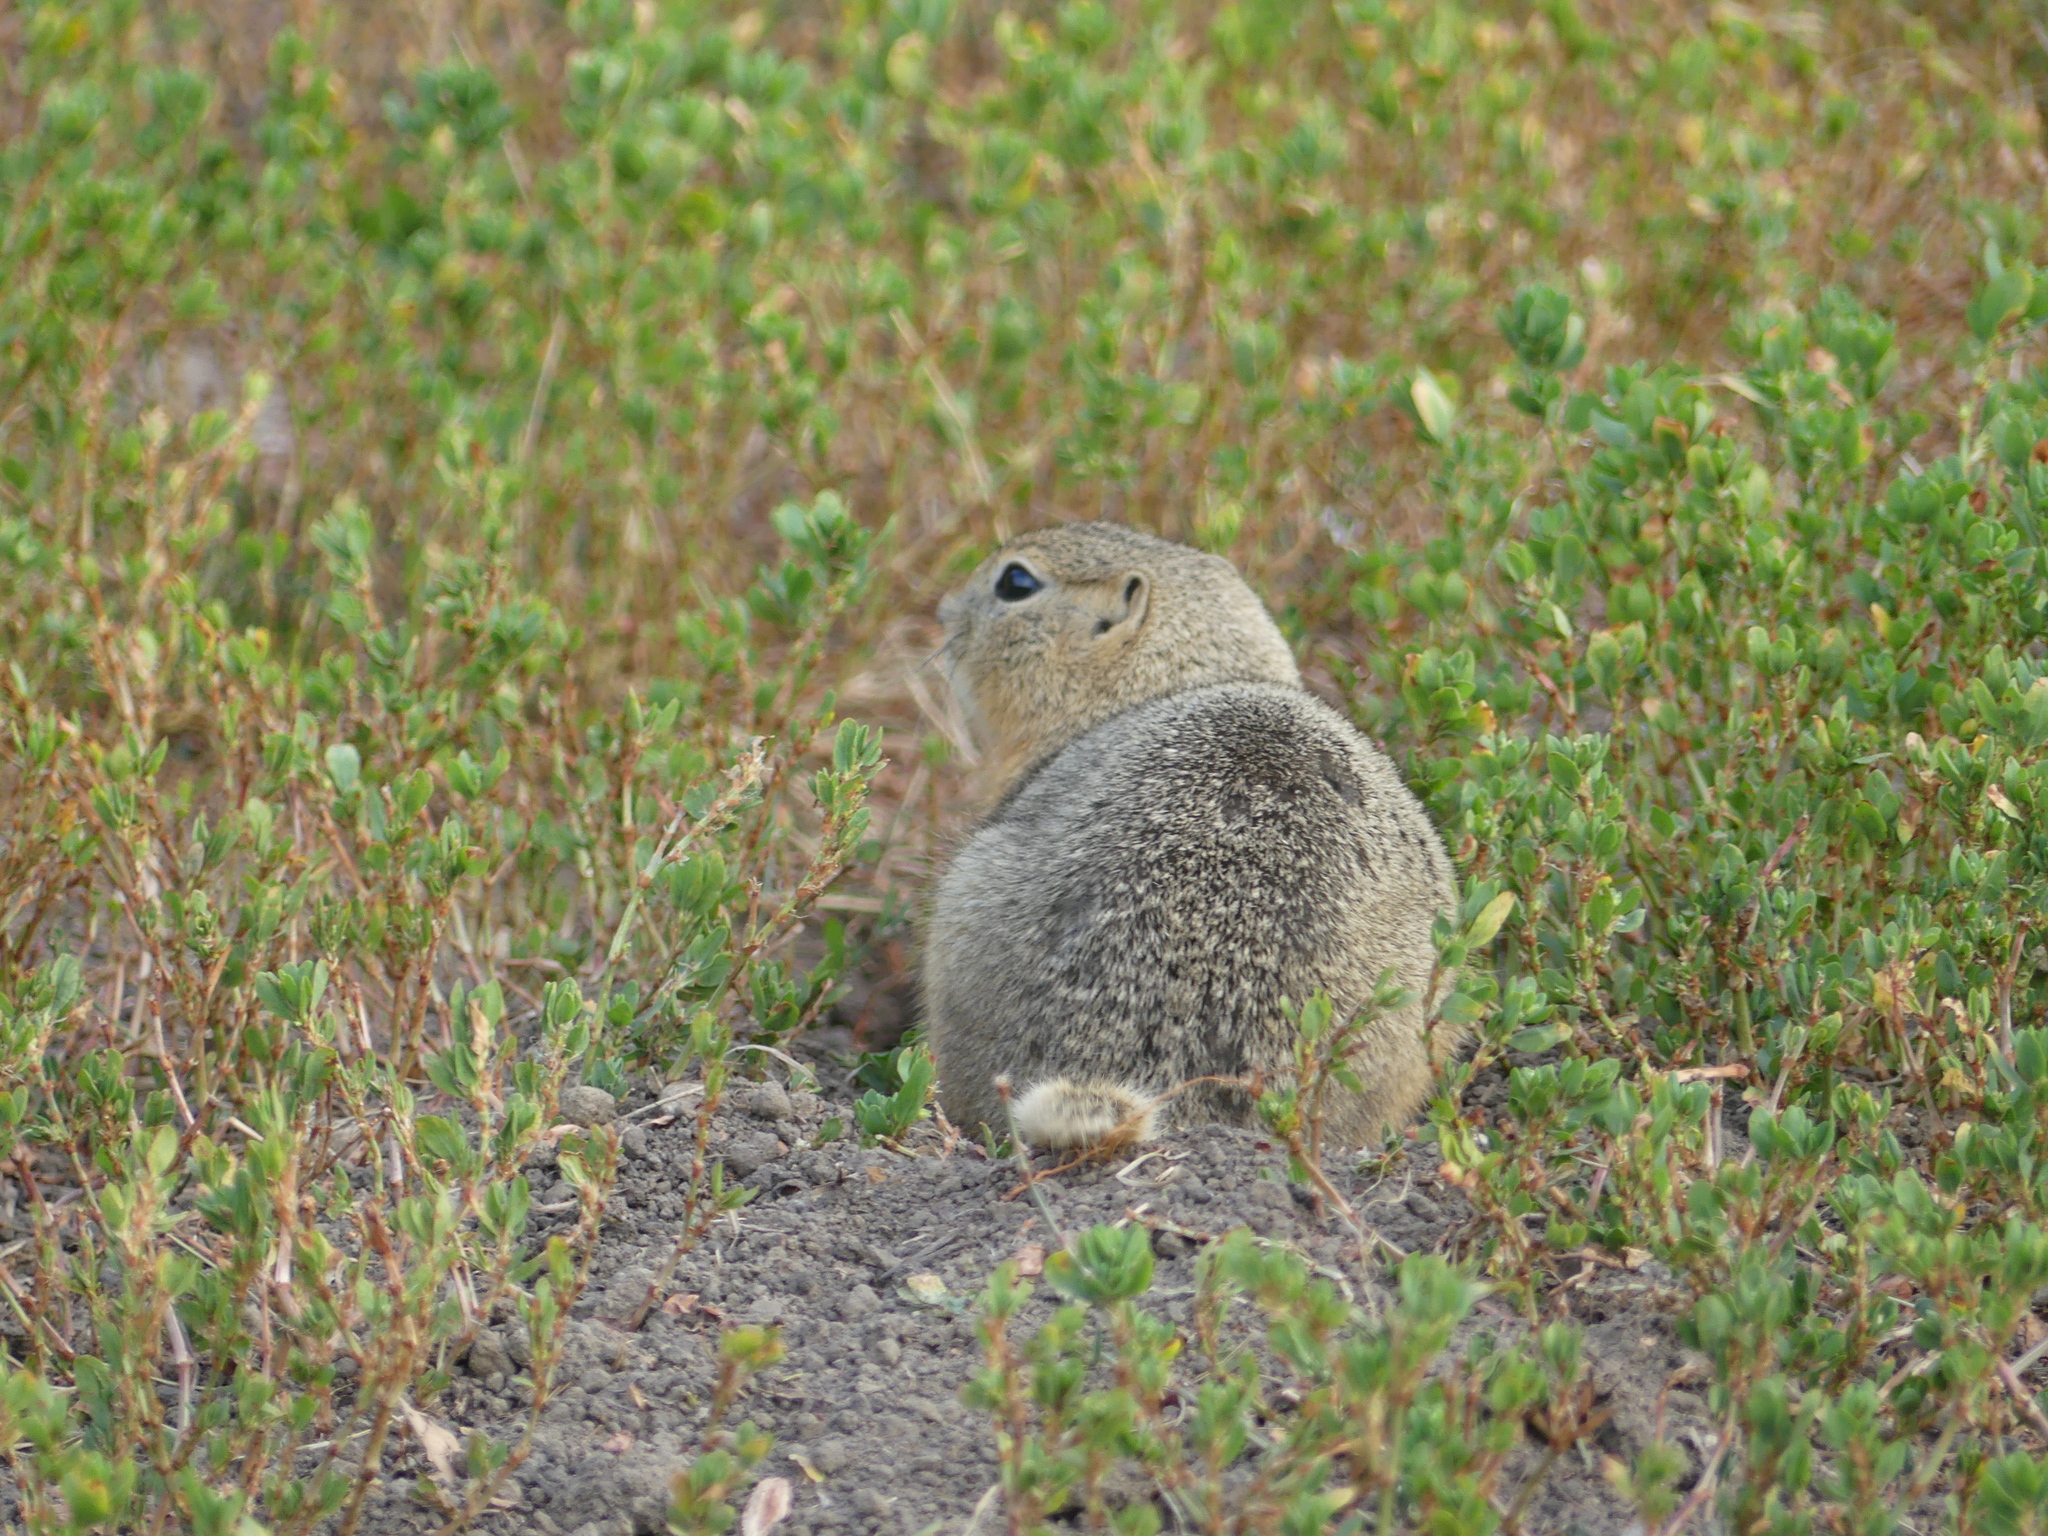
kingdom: Animalia
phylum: Chordata
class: Mammalia
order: Rodentia
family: Sciuridae
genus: Urocitellus
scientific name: Urocitellus richardsonii
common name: Richardson's ground squirrel
